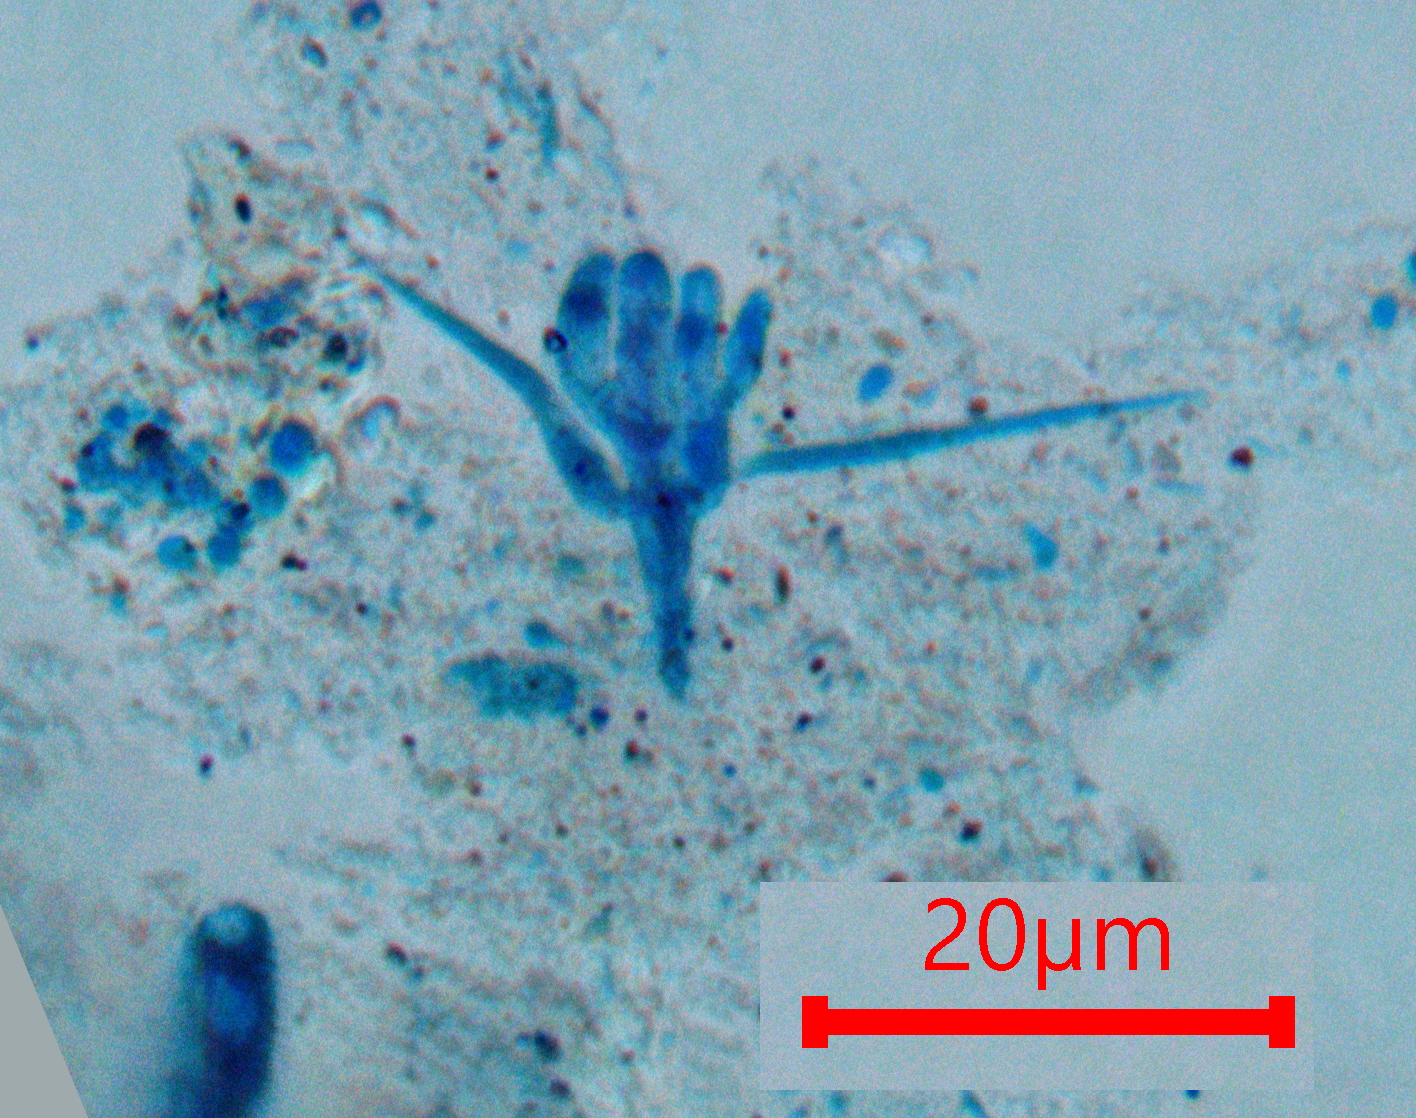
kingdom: Fungi
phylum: Ascomycota
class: Leotiomycetes
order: Helotiales
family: Helotiaceae
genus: Tetracladium
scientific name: Tetracladium setigerum
